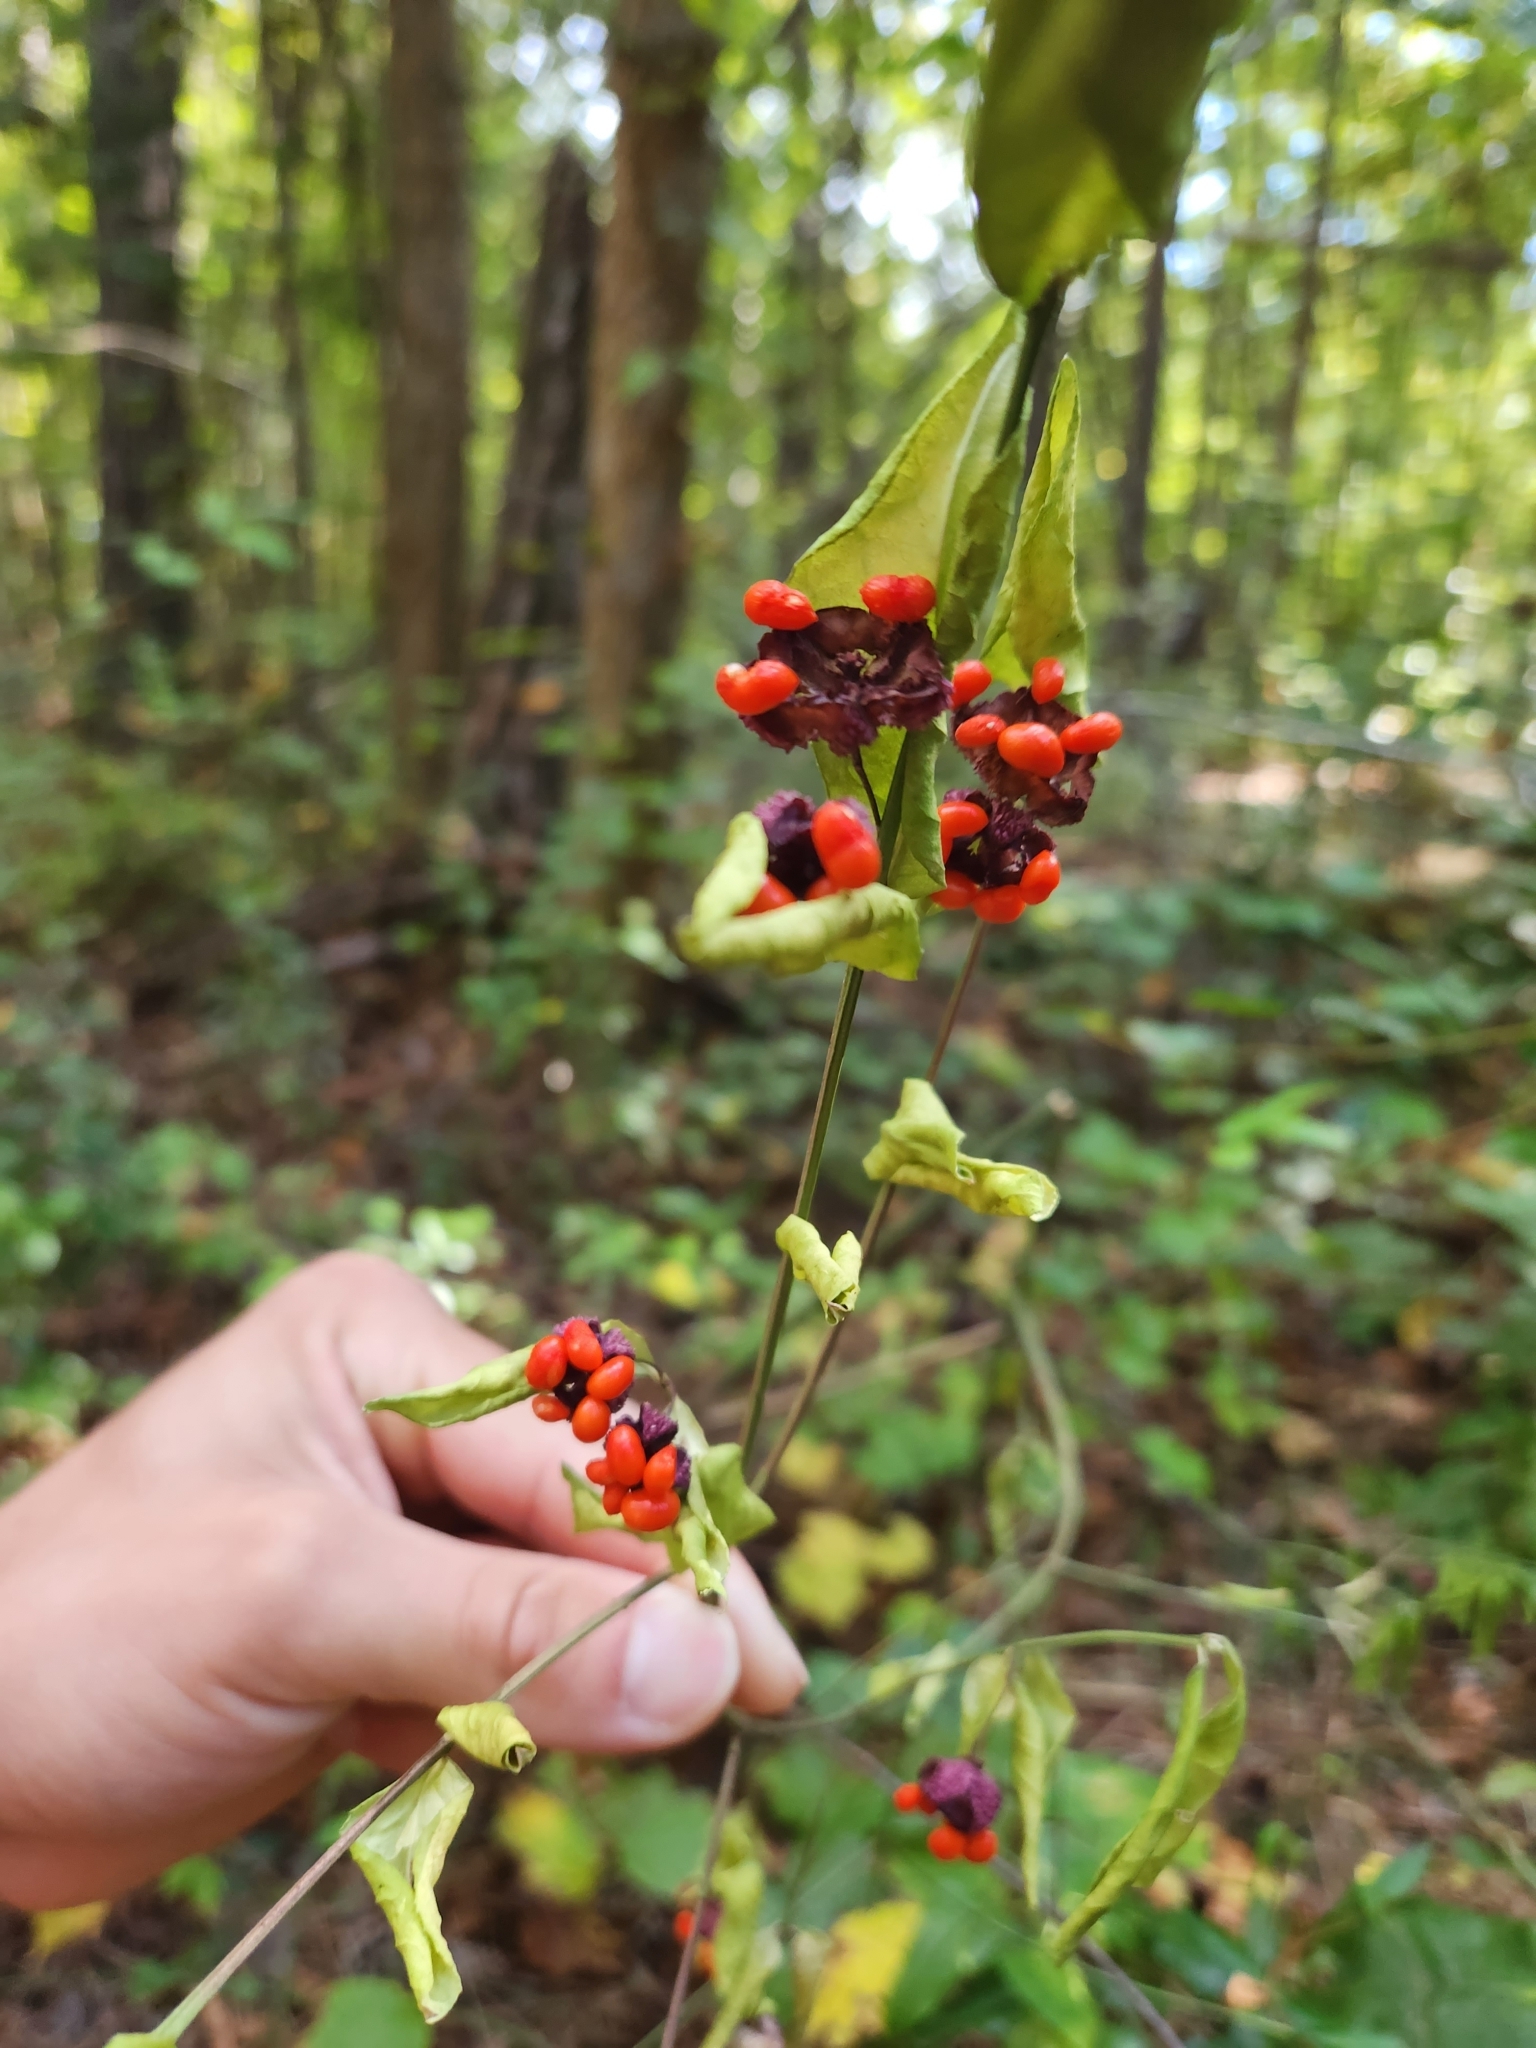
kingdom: Plantae
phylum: Tracheophyta
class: Magnoliopsida
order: Celastrales
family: Celastraceae
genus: Euonymus
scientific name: Euonymus americanus
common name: Bursting-heart
